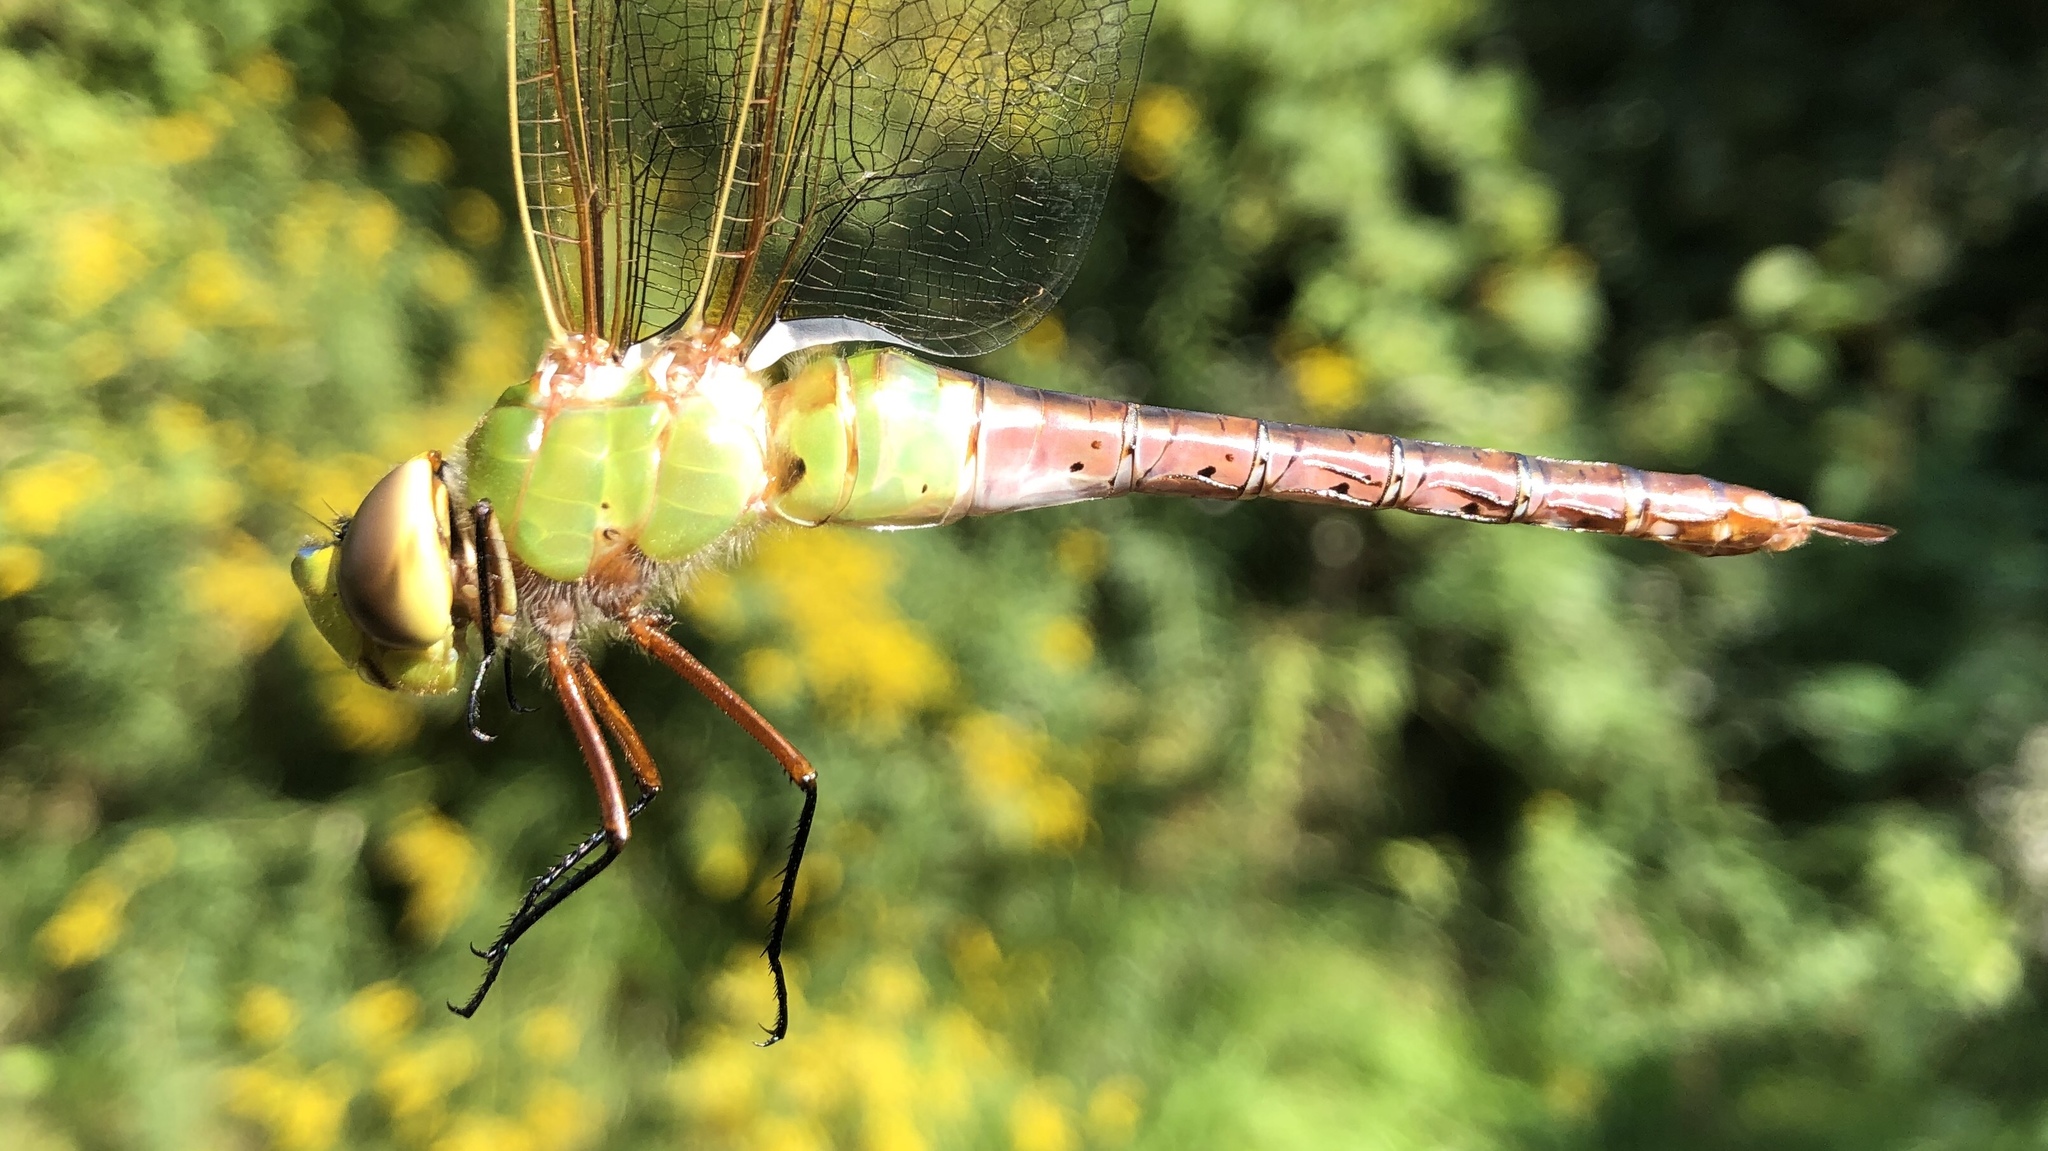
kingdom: Animalia
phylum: Arthropoda
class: Insecta
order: Odonata
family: Aeshnidae
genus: Anax
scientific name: Anax junius
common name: Common green darner
